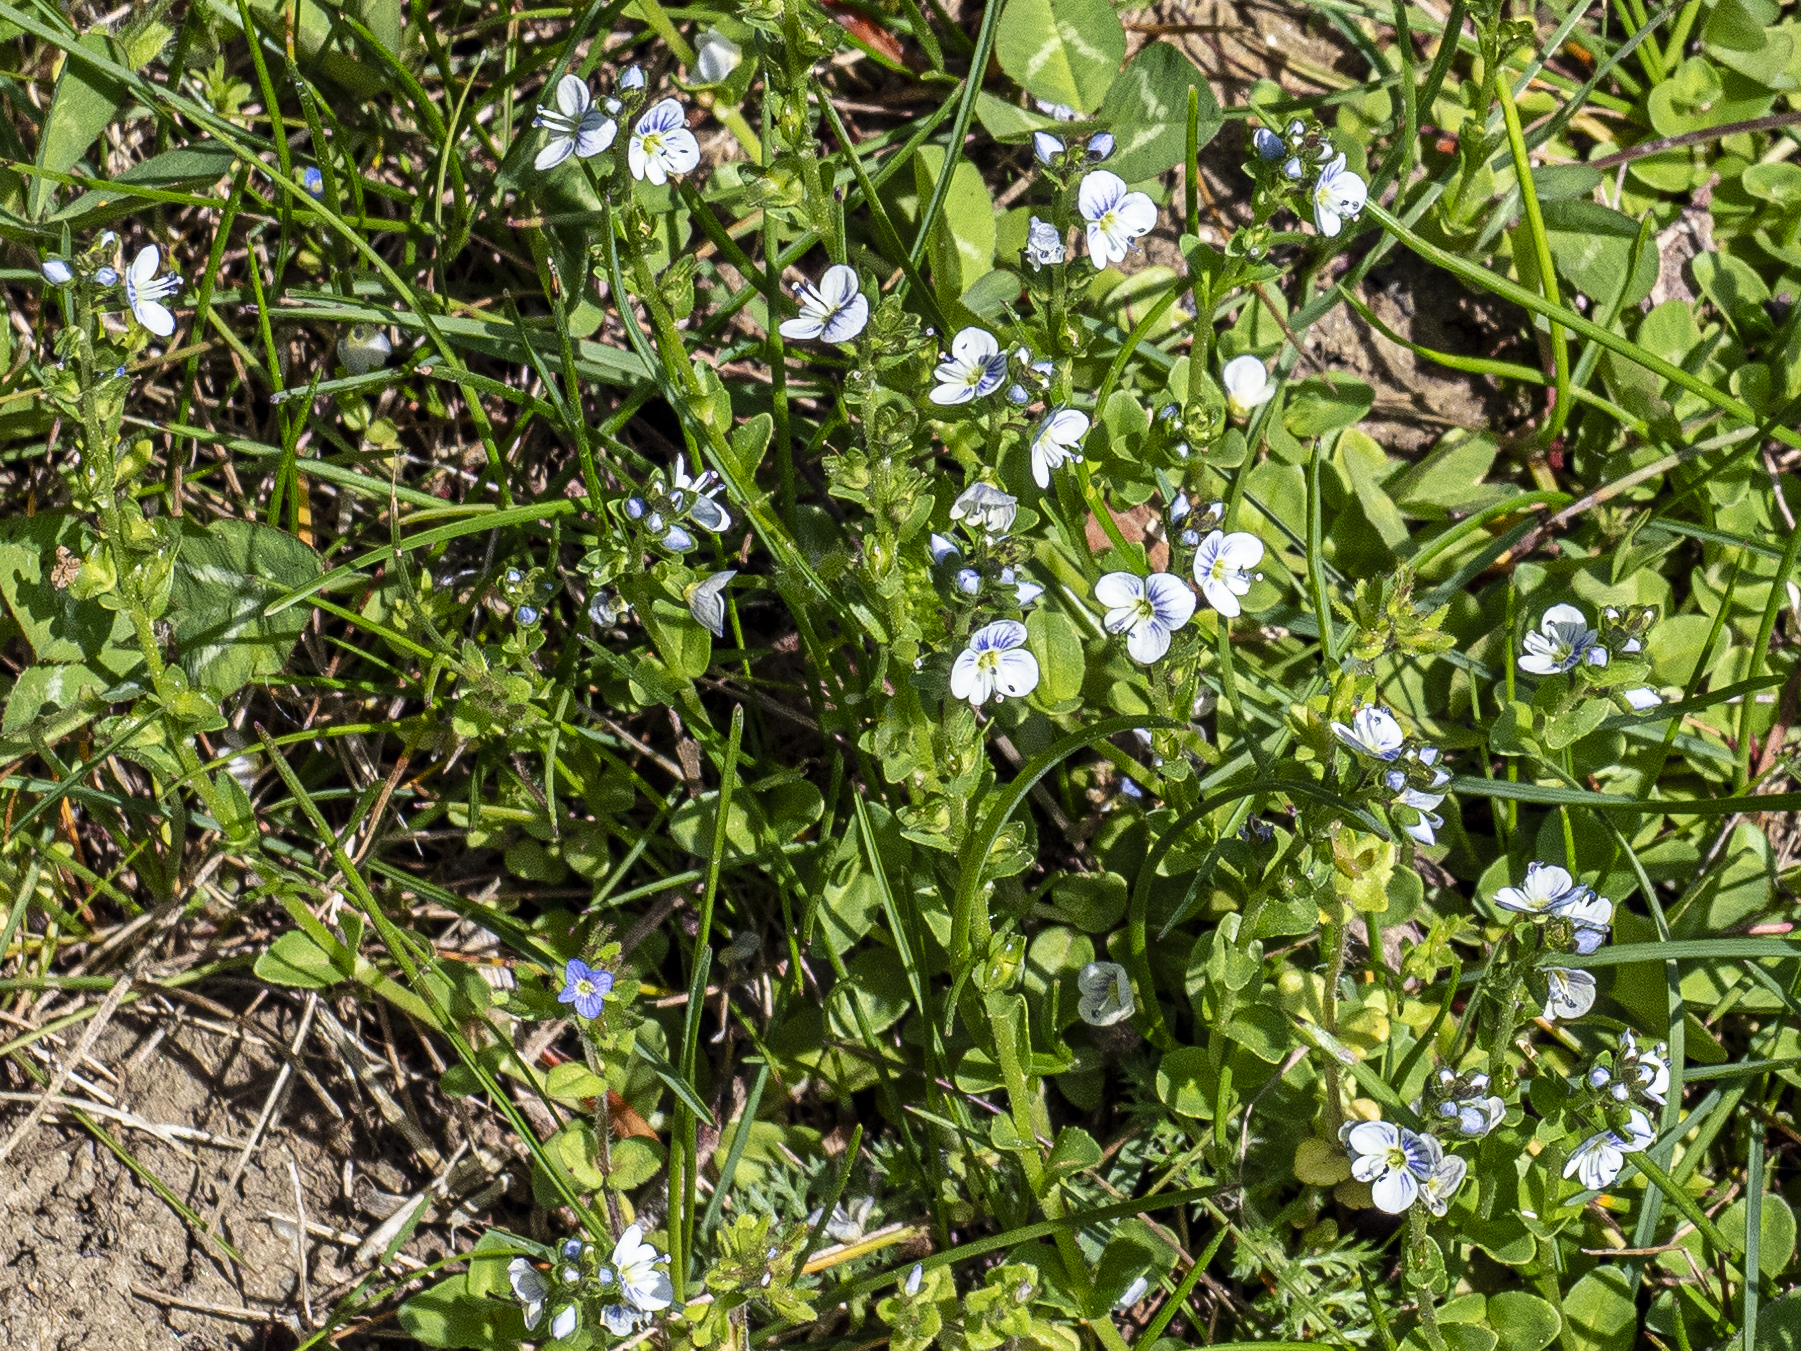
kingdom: Plantae
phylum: Tracheophyta
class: Magnoliopsida
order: Lamiales
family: Plantaginaceae
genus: Veronica
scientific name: Veronica serpyllifolia
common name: Thyme-leaved speedwell
